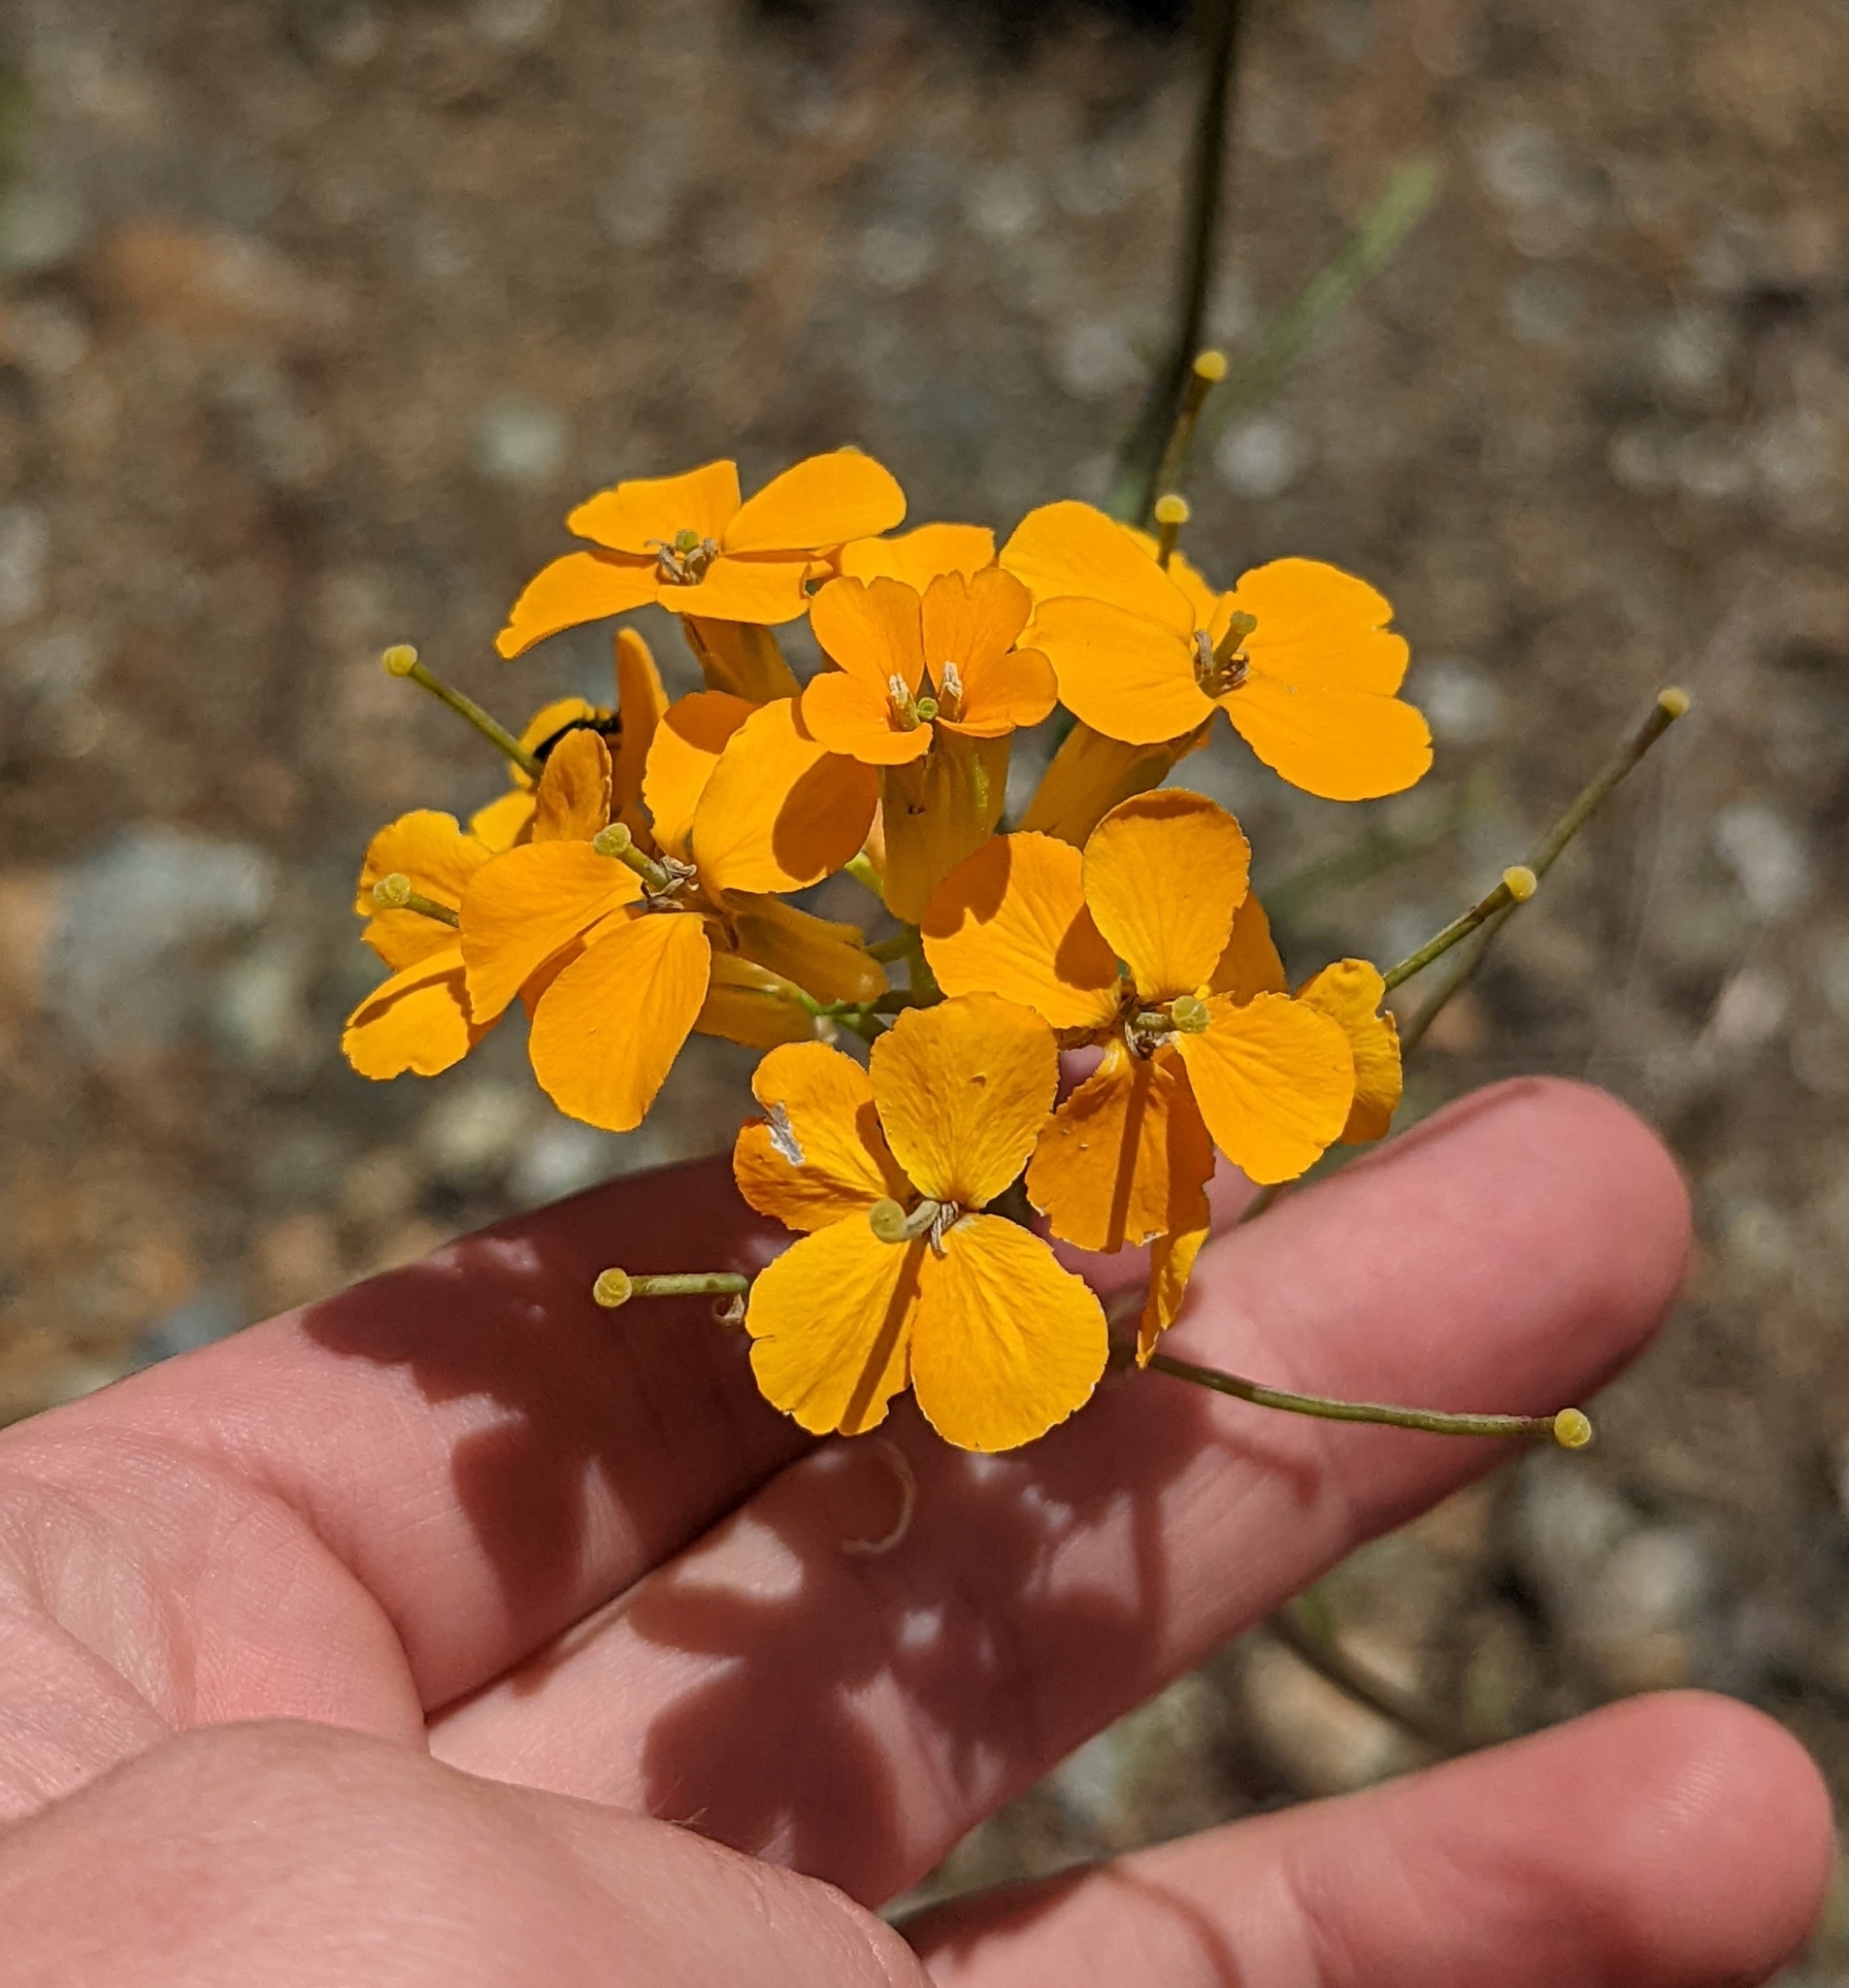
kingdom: Plantae
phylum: Tracheophyta
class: Magnoliopsida
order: Brassicales
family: Brassicaceae
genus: Erysimum
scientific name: Erysimum capitatum
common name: Western wallflower
